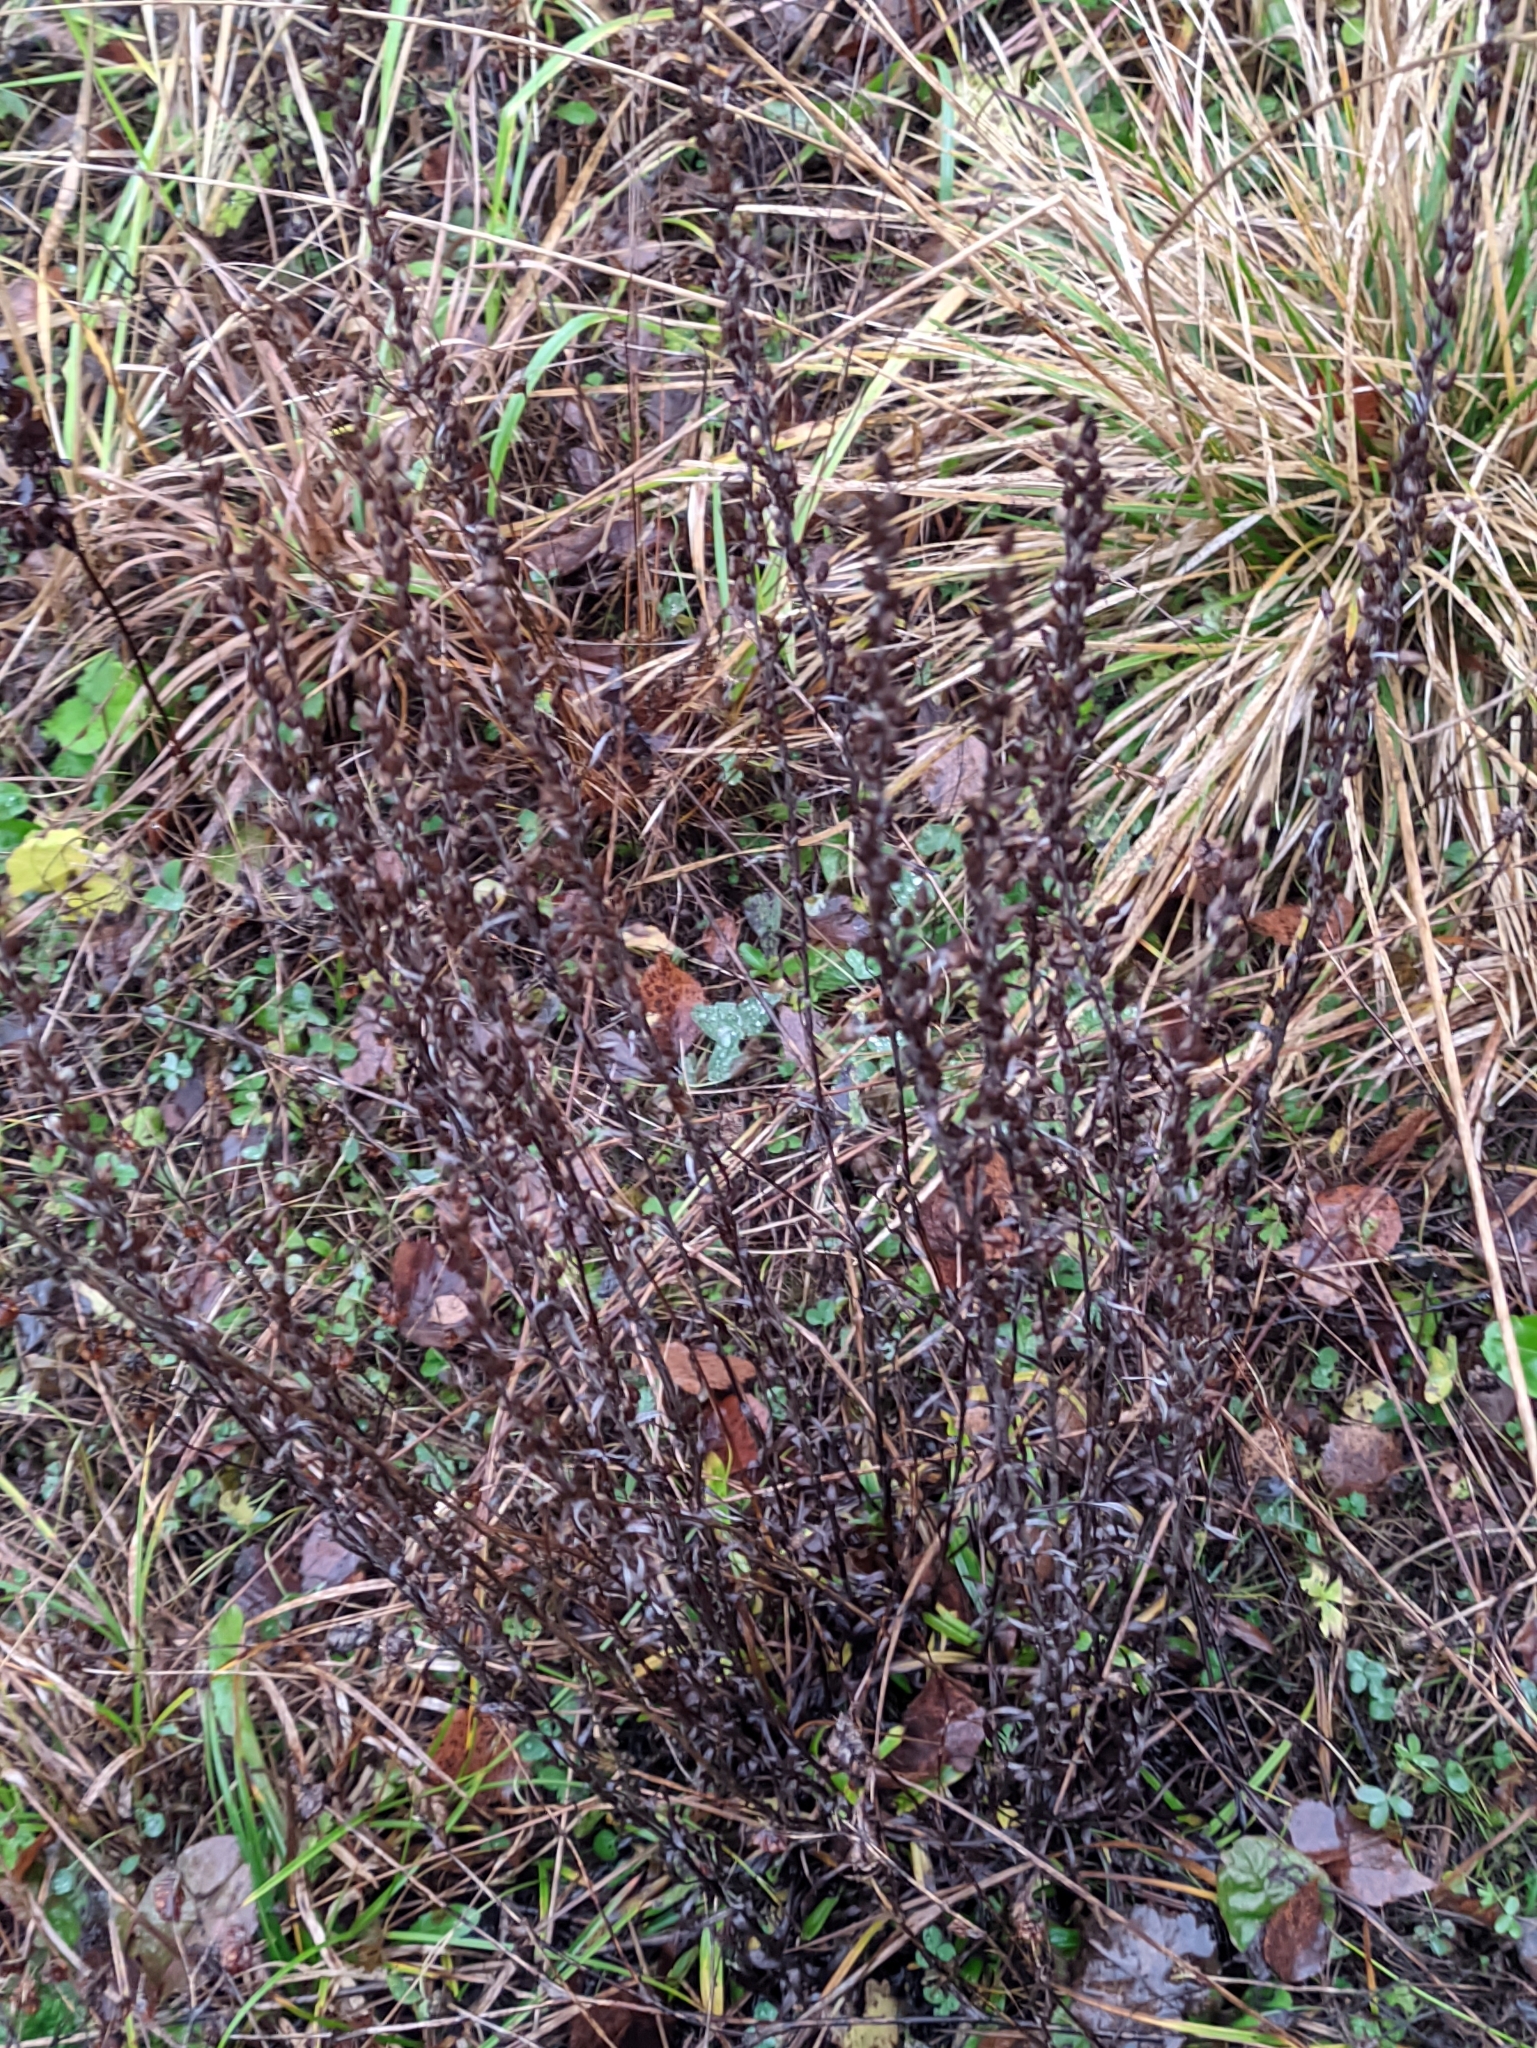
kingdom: Plantae
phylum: Tracheophyta
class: Magnoliopsida
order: Asterales
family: Asteraceae
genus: Omalotheca
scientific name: Omalotheca sylvatica
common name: Heath cudweed
